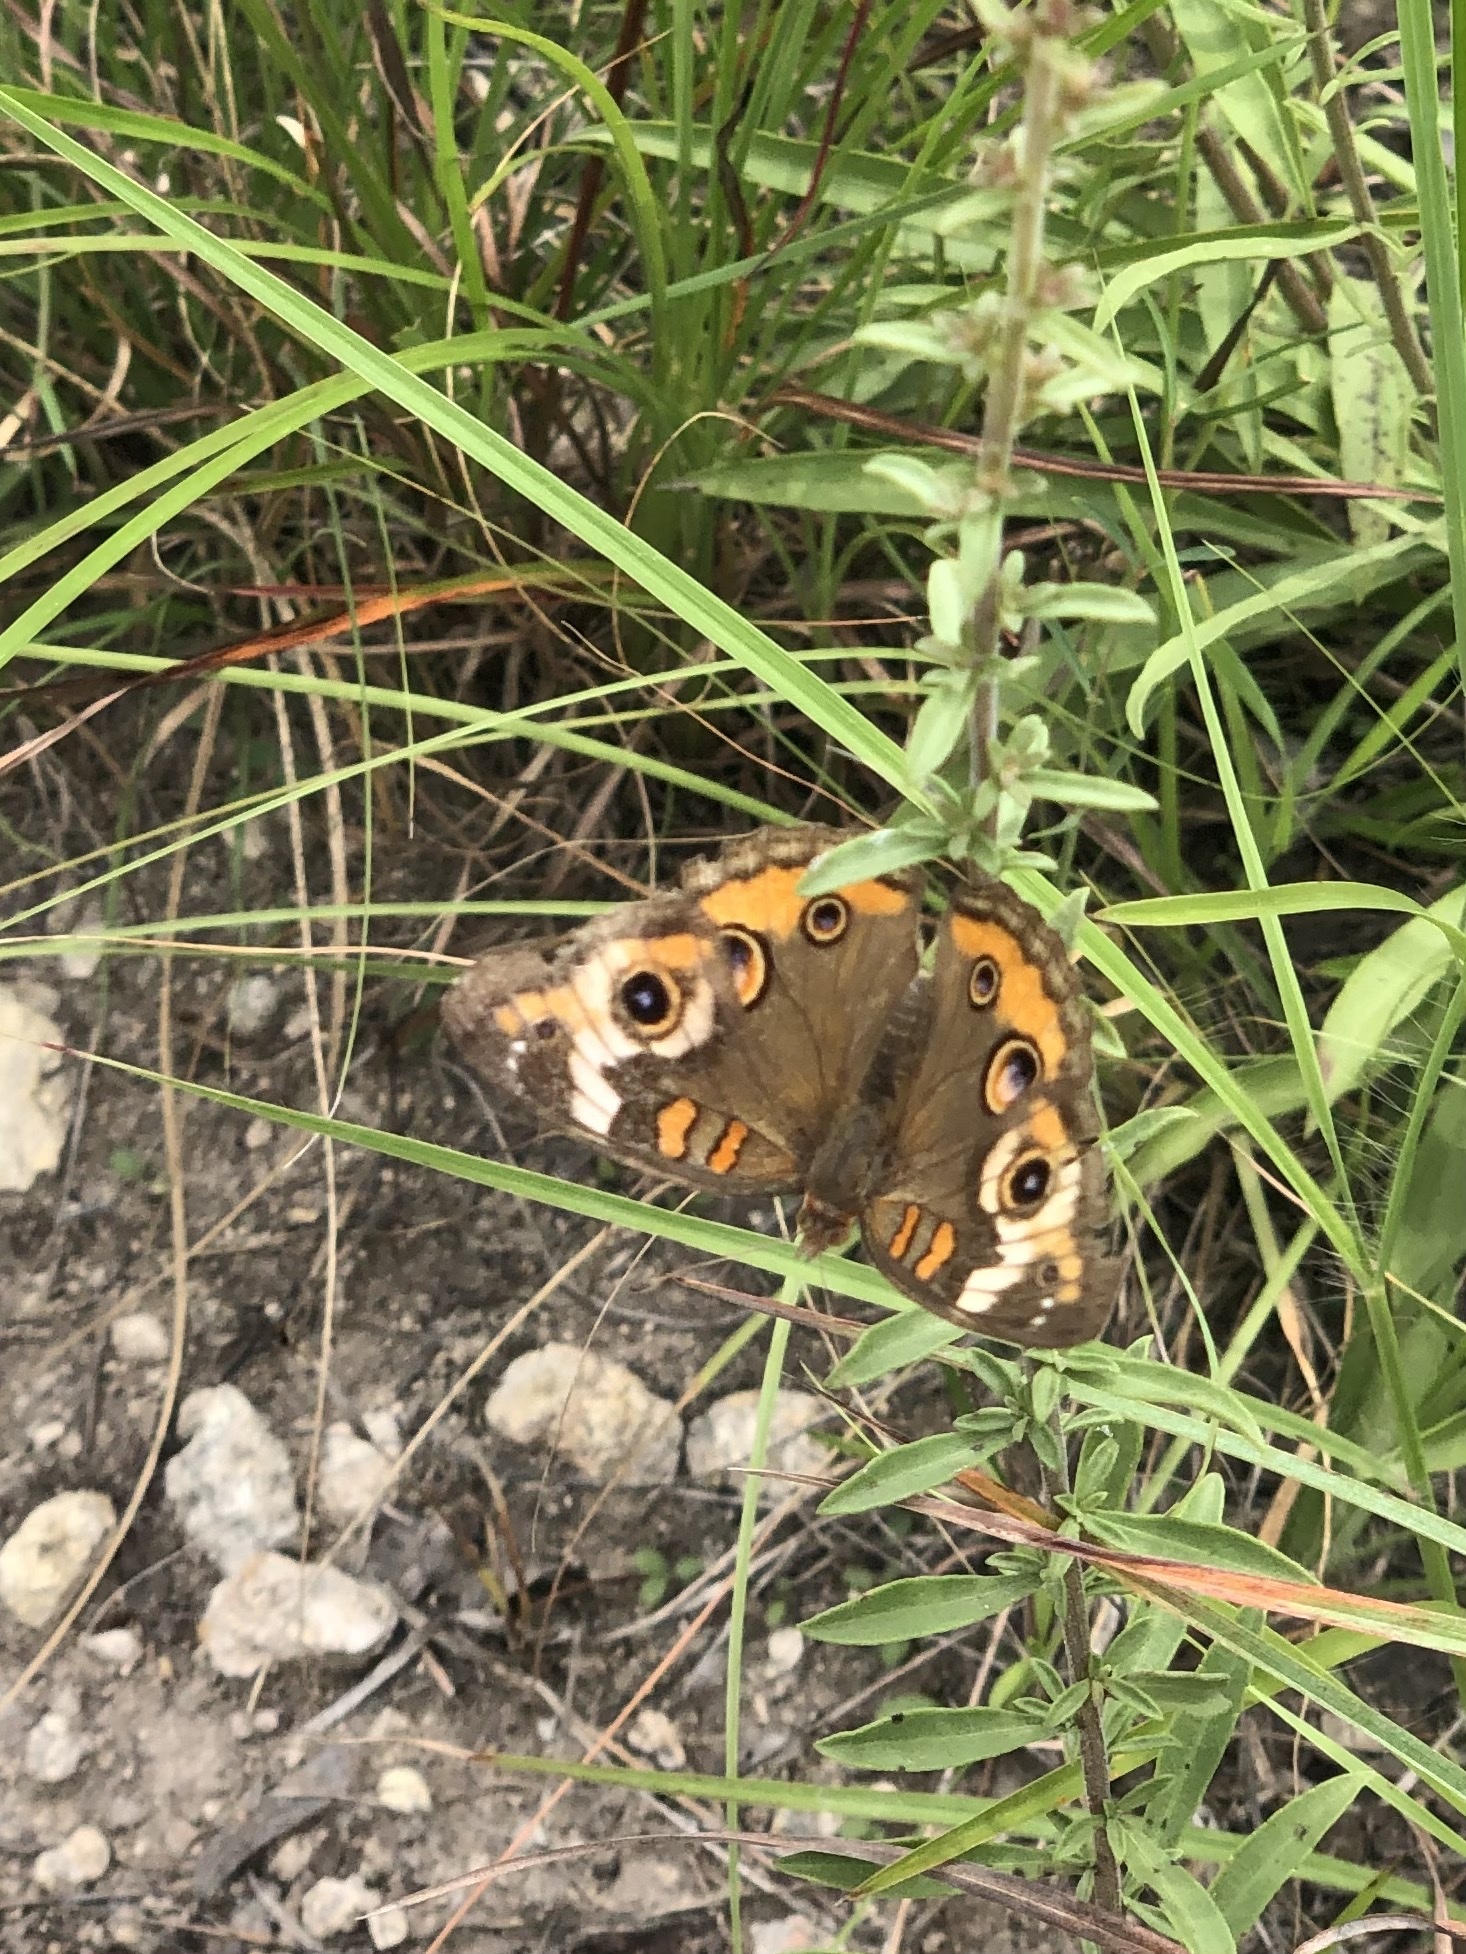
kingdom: Animalia
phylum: Arthropoda
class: Insecta
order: Lepidoptera
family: Nymphalidae
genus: Junonia
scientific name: Junonia coenia
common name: Common buckeye
